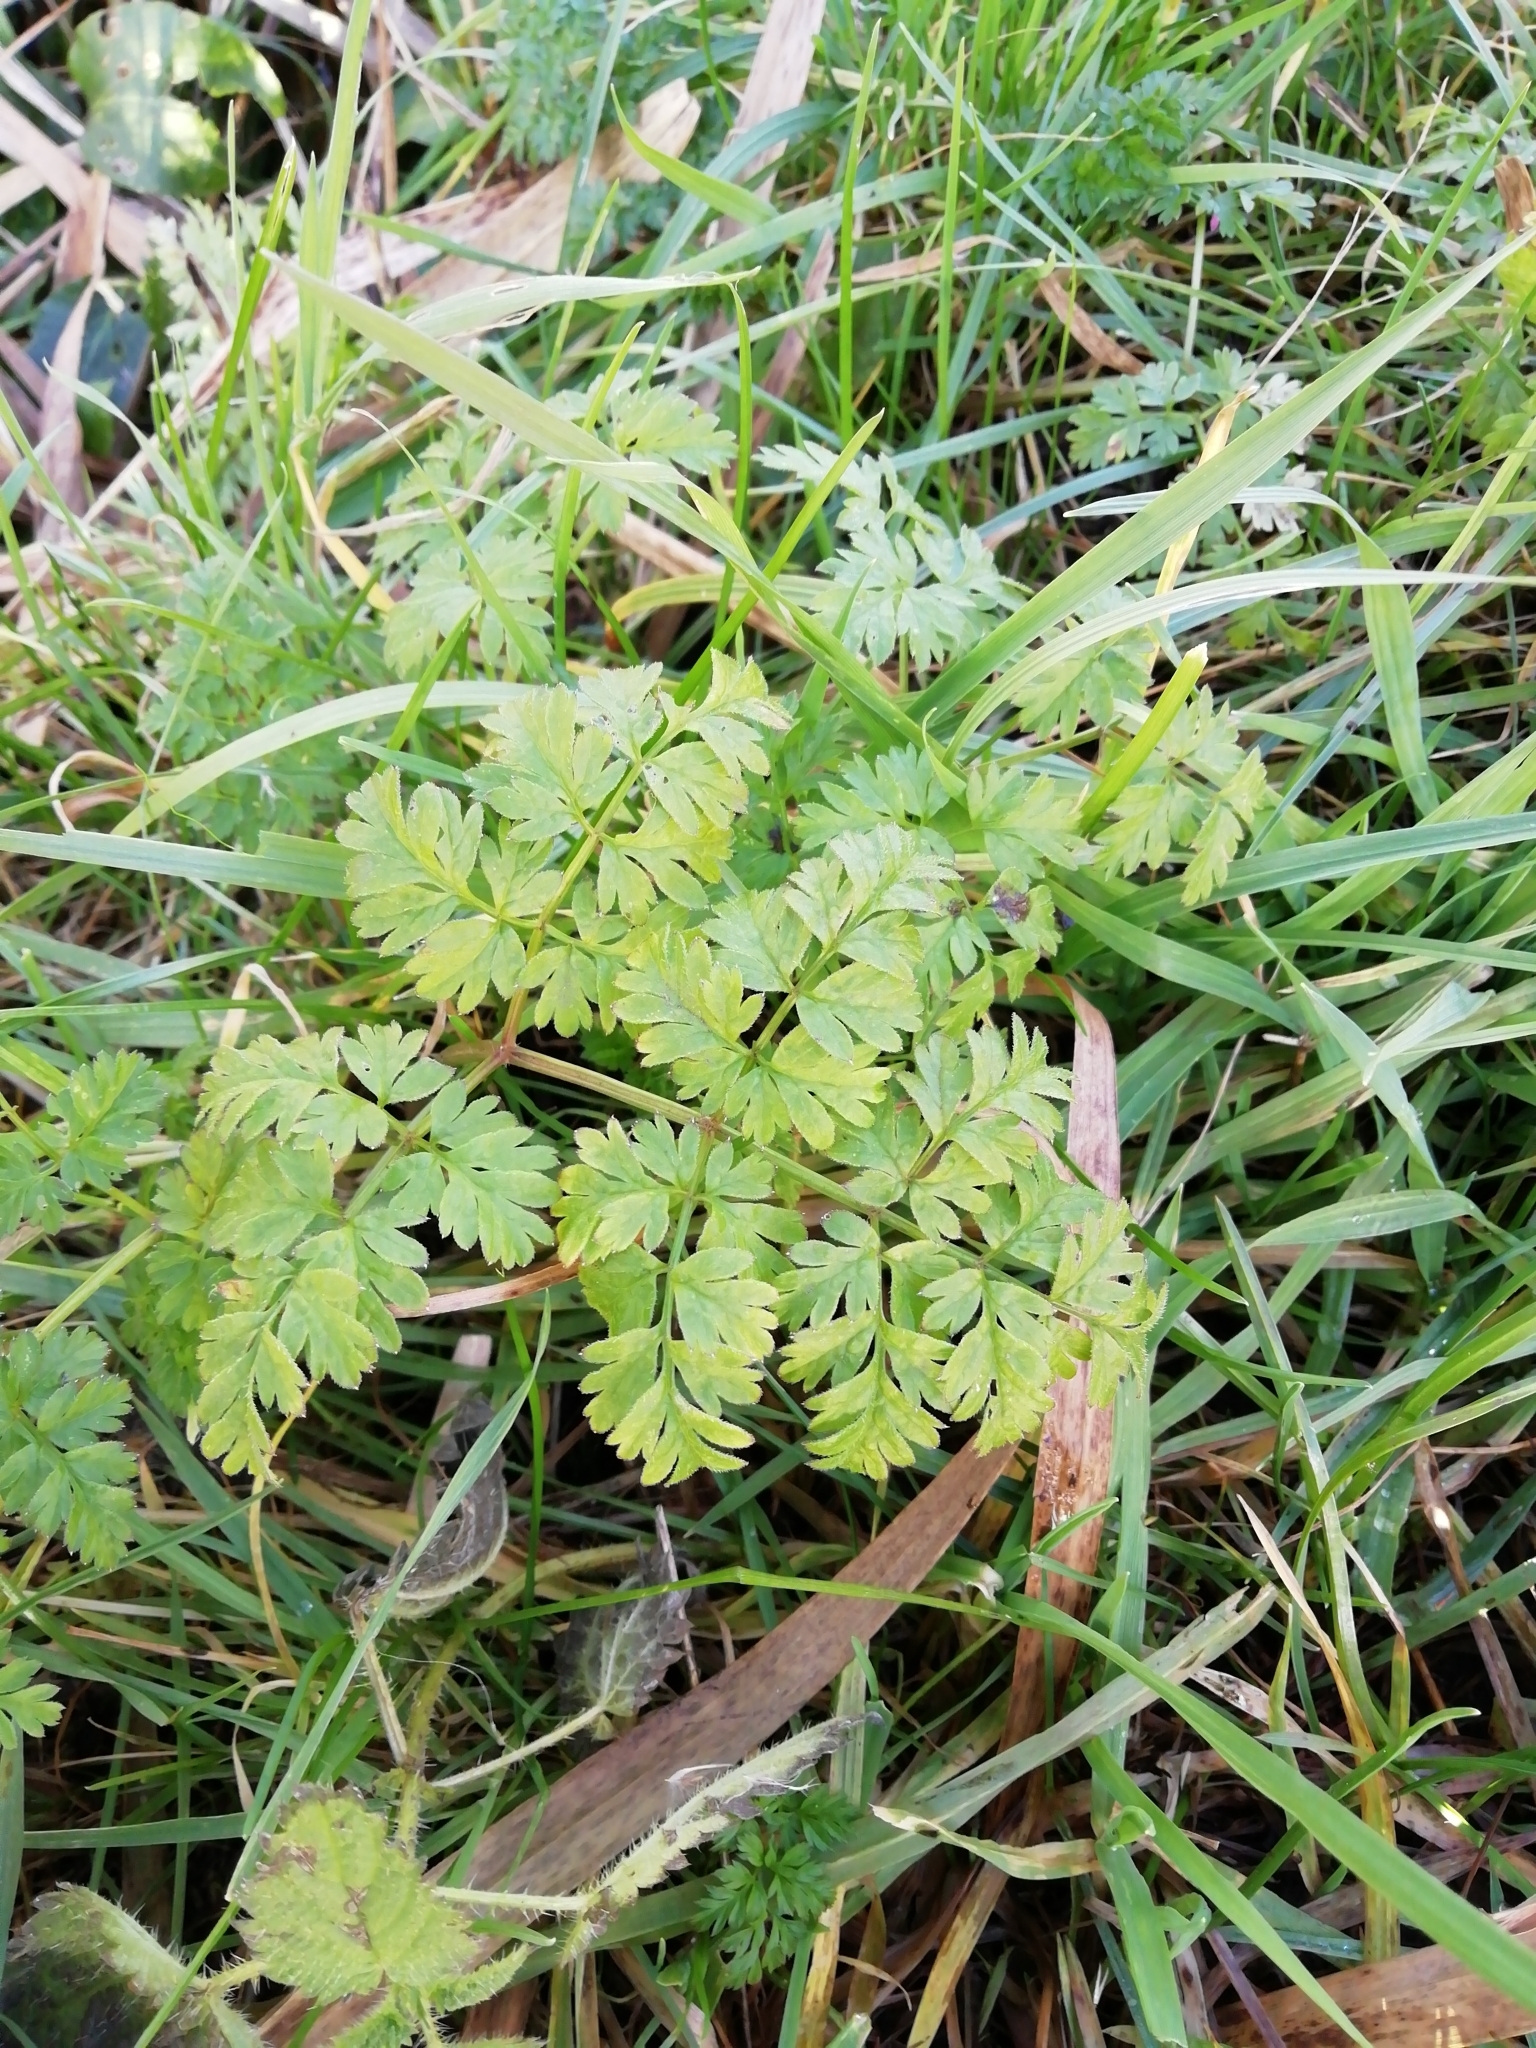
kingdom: Plantae
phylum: Tracheophyta
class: Magnoliopsida
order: Apiales
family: Apiaceae
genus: Anthriscus
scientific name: Anthriscus sylvestris
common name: Cow parsley
